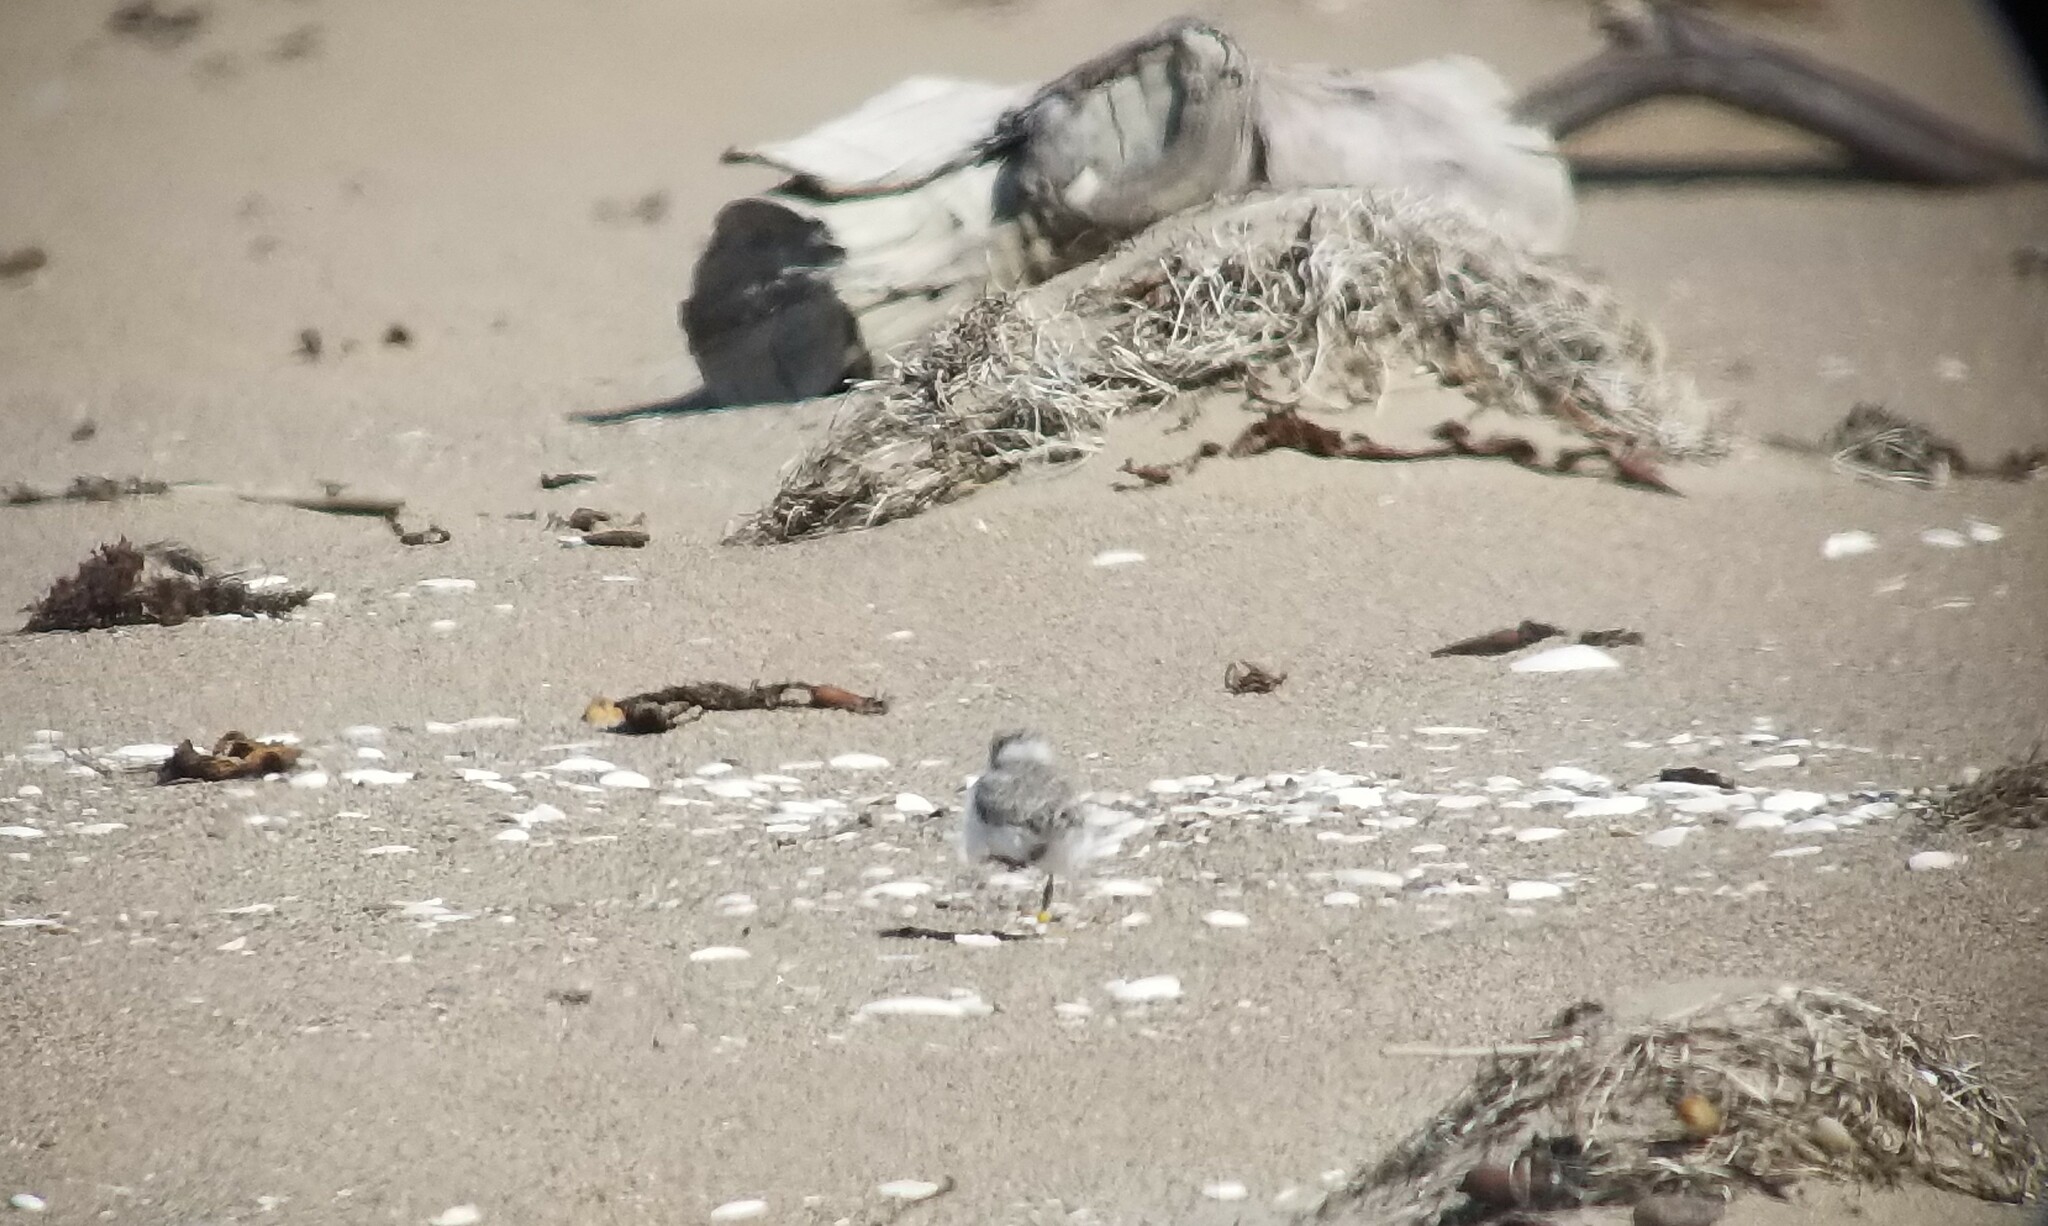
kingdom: Animalia
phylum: Chordata
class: Aves
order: Charadriiformes
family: Charadriidae
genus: Anarhynchus
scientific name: Anarhynchus
